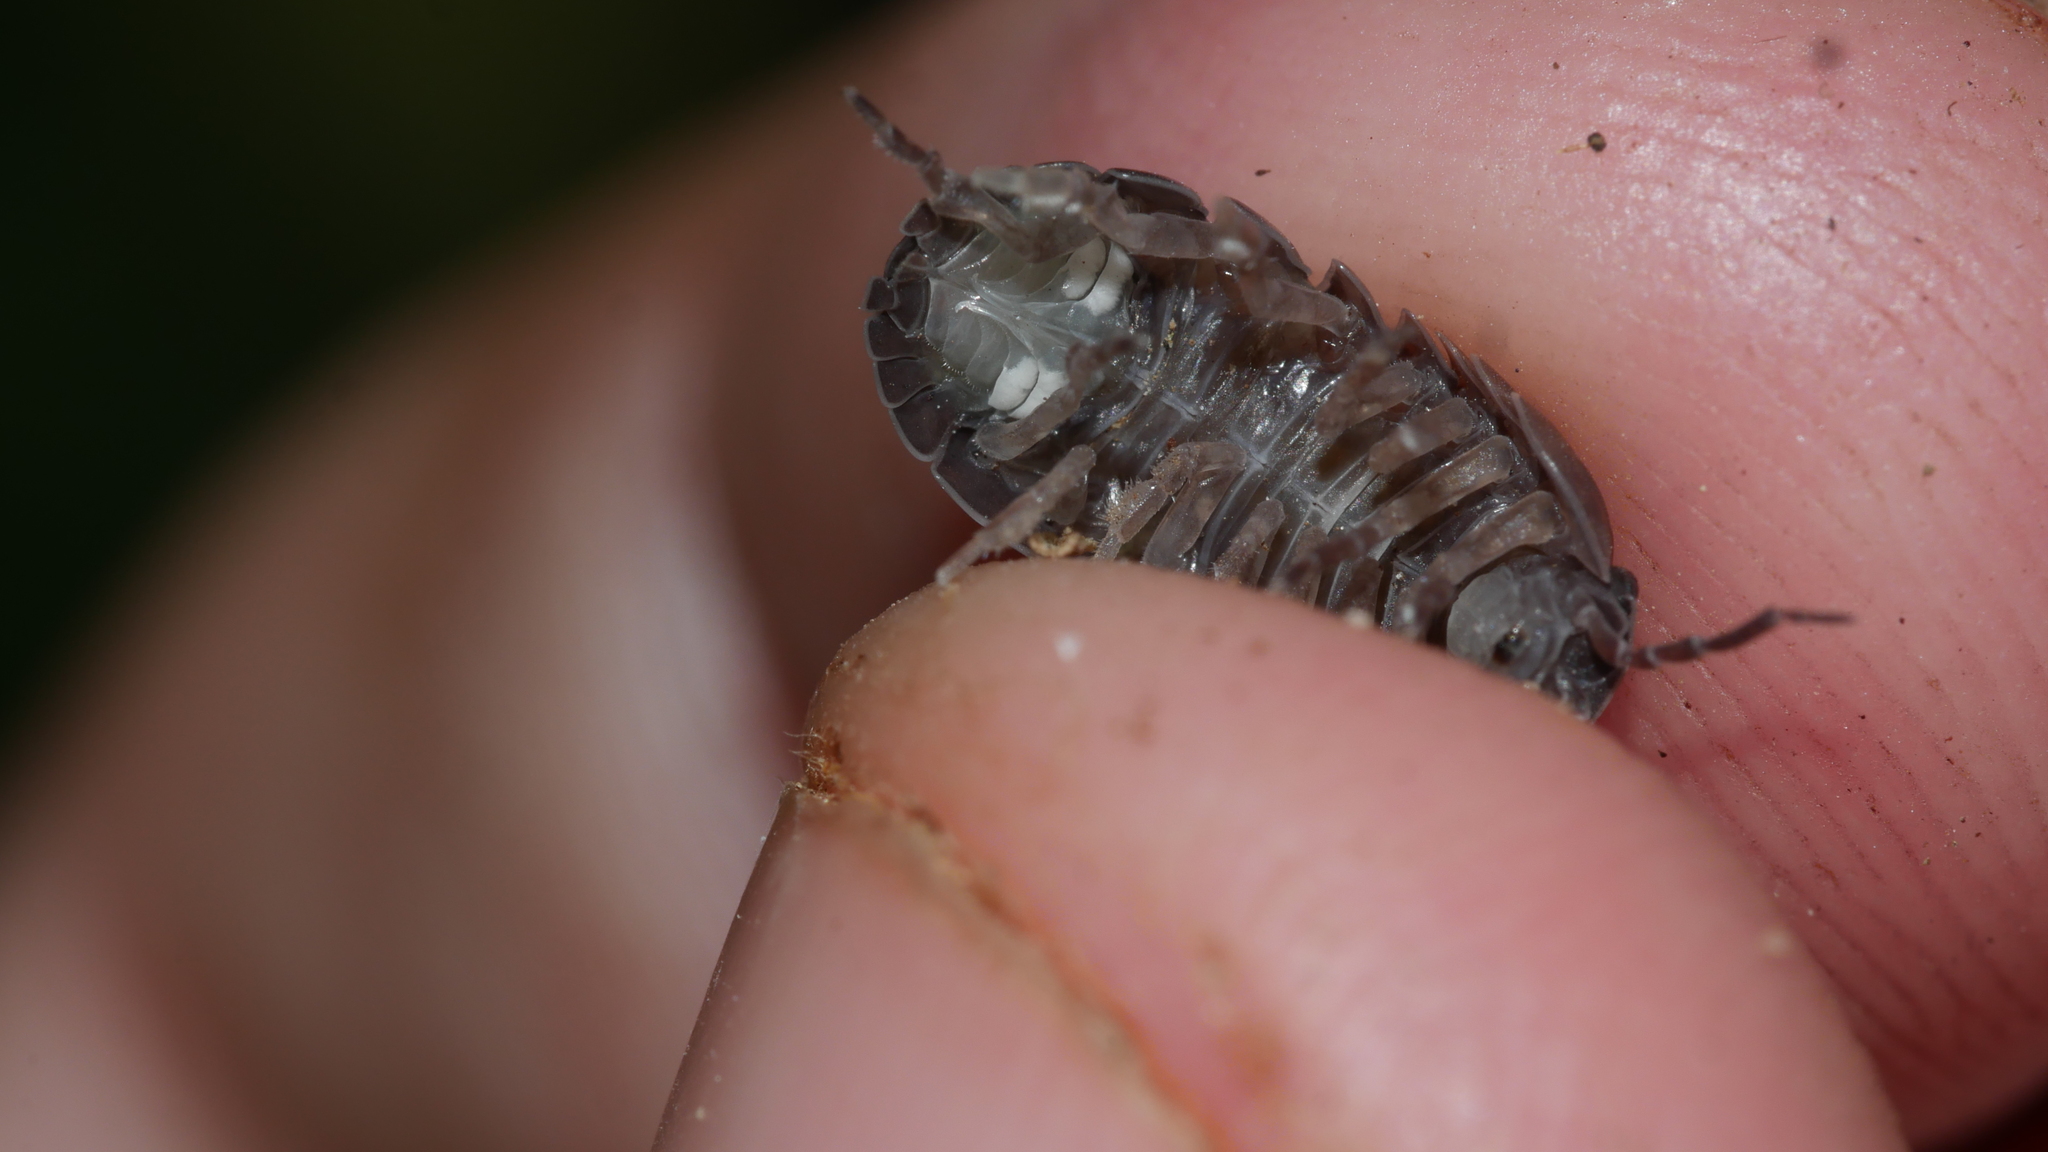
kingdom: Animalia
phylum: Arthropoda
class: Malacostraca
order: Isopoda
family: Armadillidiidae
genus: Armadillidium
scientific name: Armadillidium vulgare
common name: Common pill woodlouse
